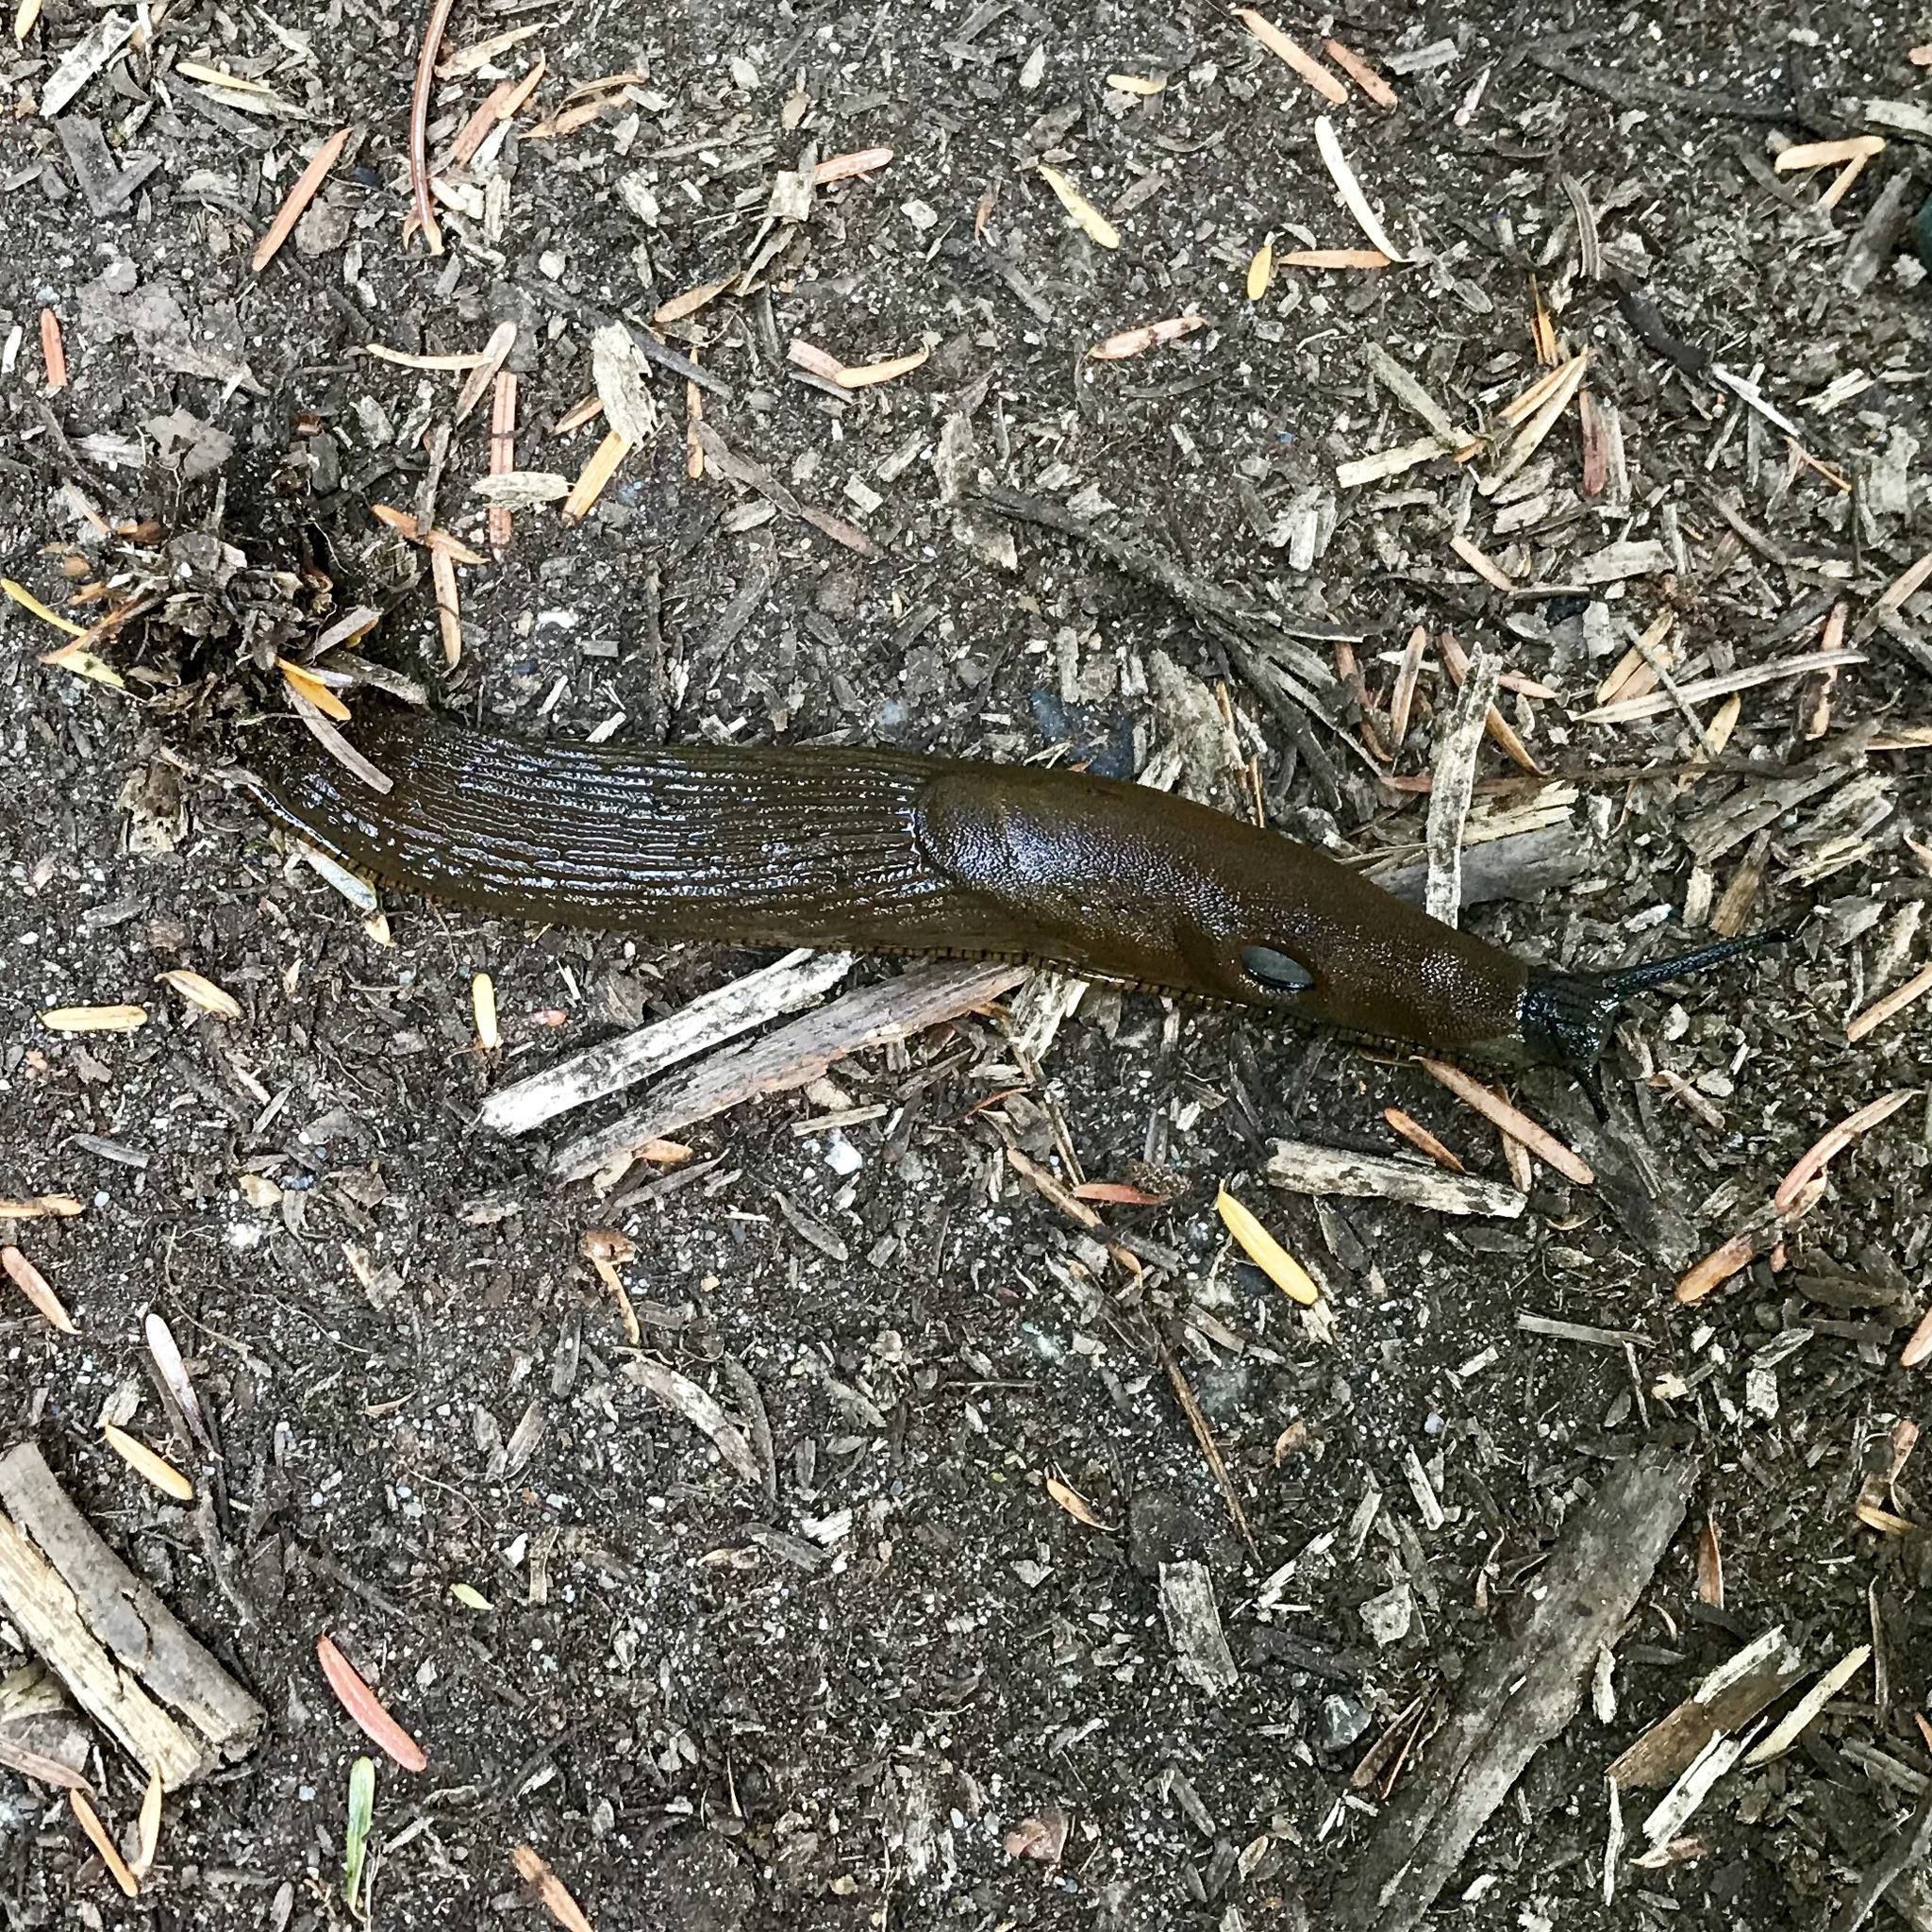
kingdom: Animalia
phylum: Mollusca
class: Gastropoda
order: Stylommatophora
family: Arionidae
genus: Arion
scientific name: Arion
